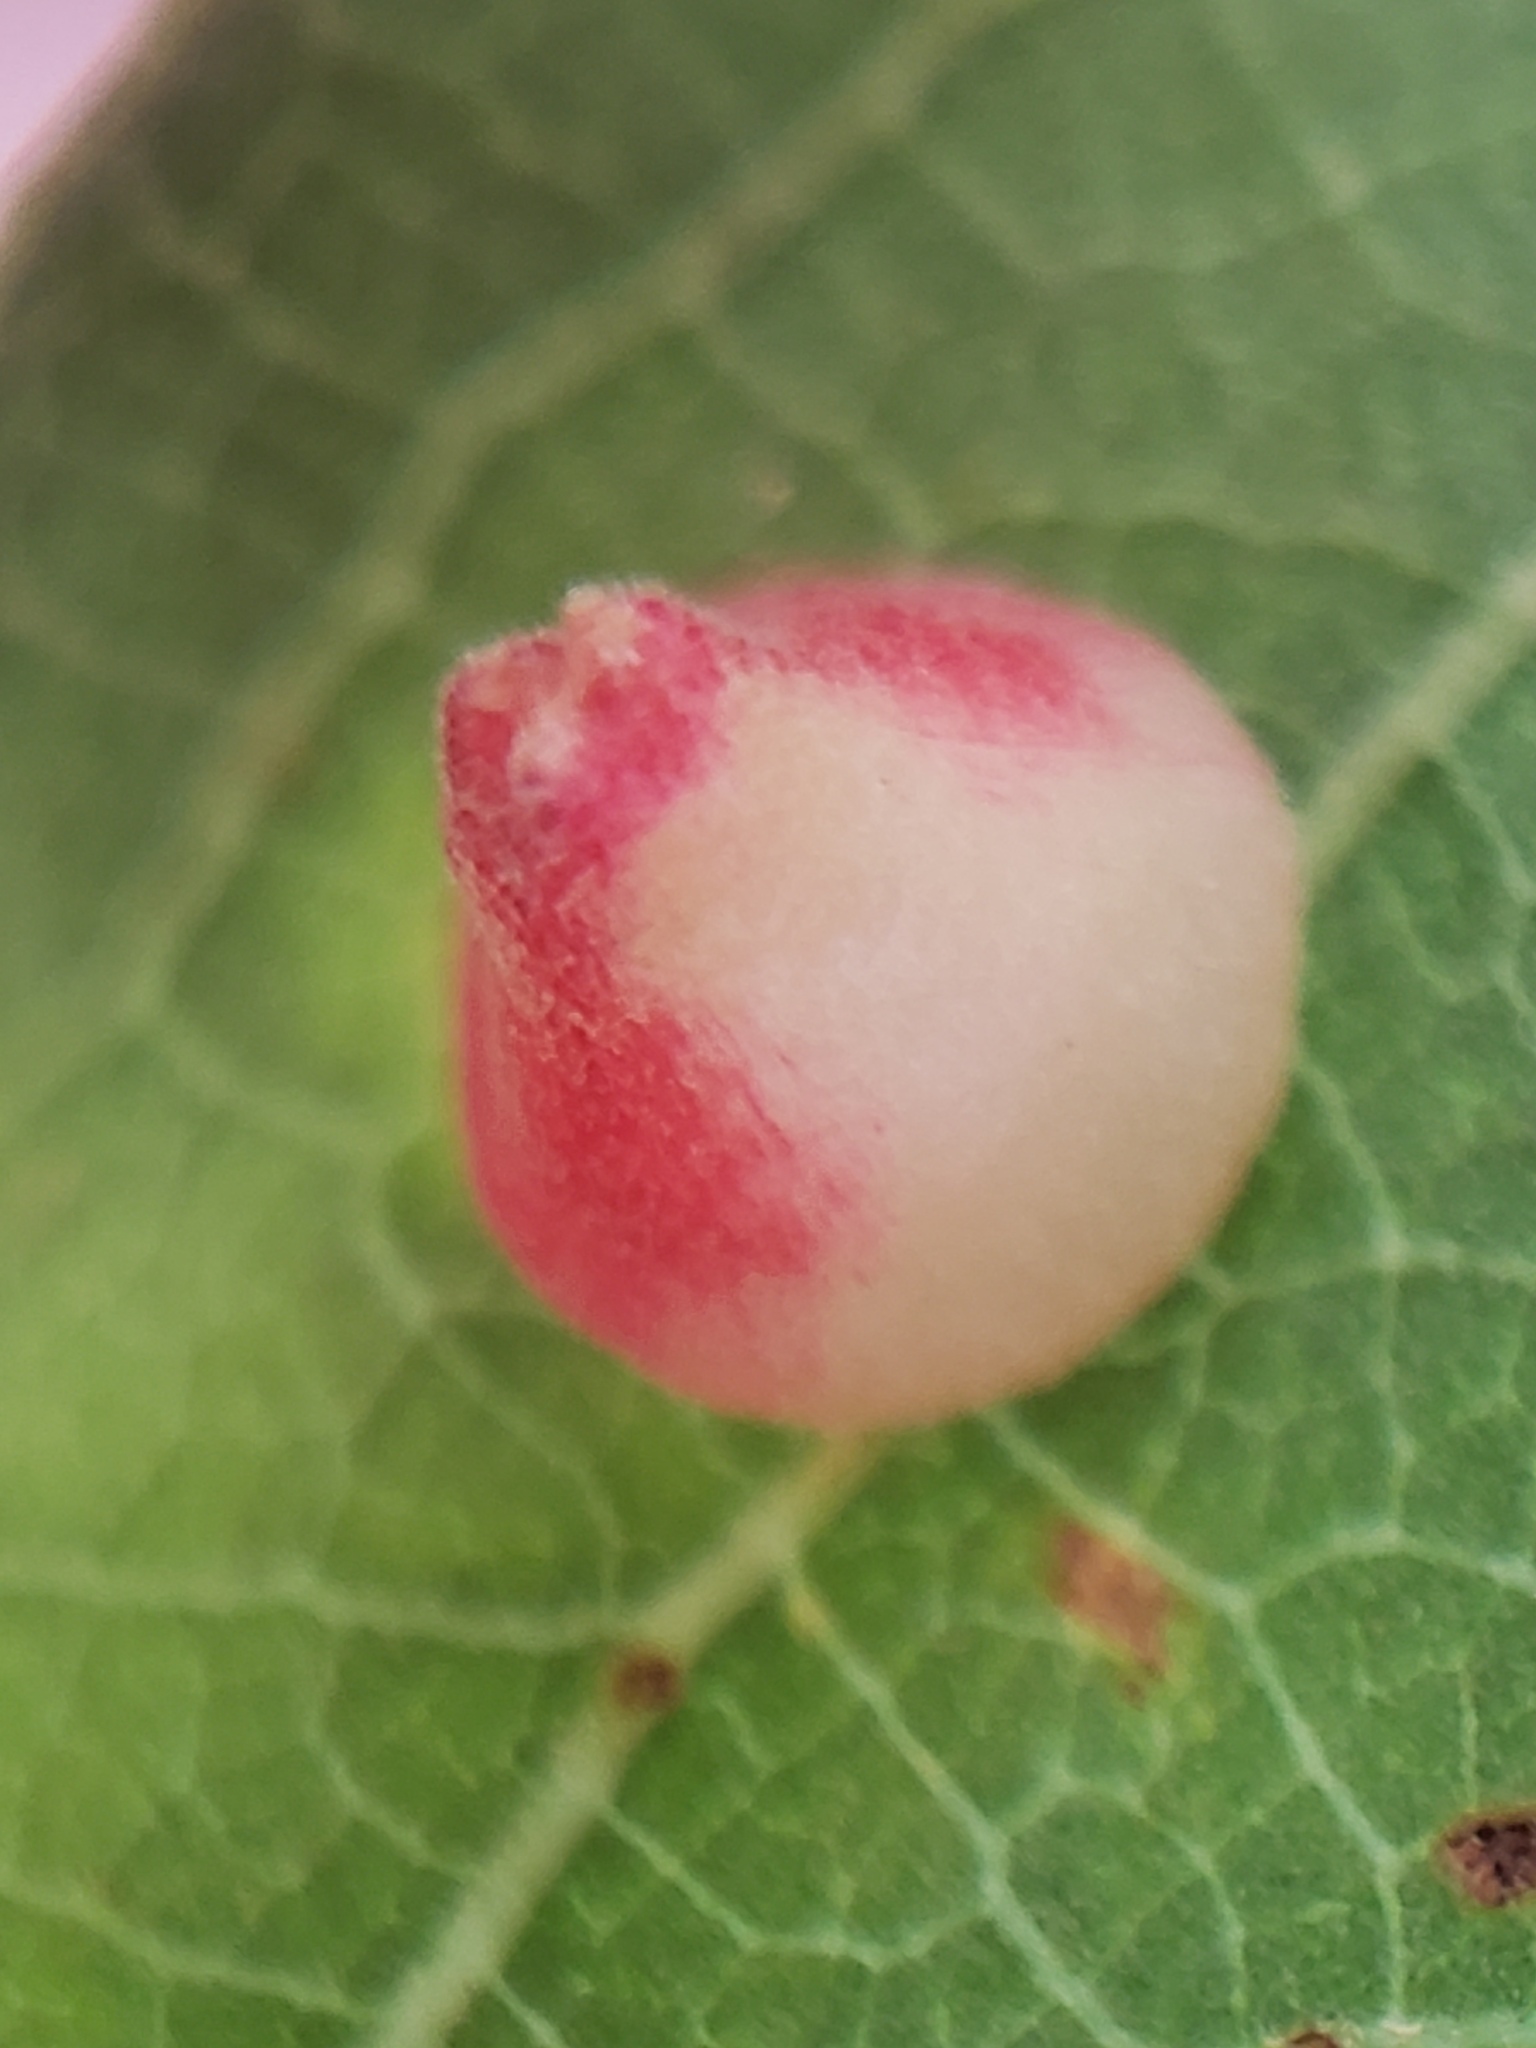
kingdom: Animalia
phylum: Arthropoda
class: Insecta
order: Hymenoptera
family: Cynipidae
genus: Andricus
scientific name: Andricus
